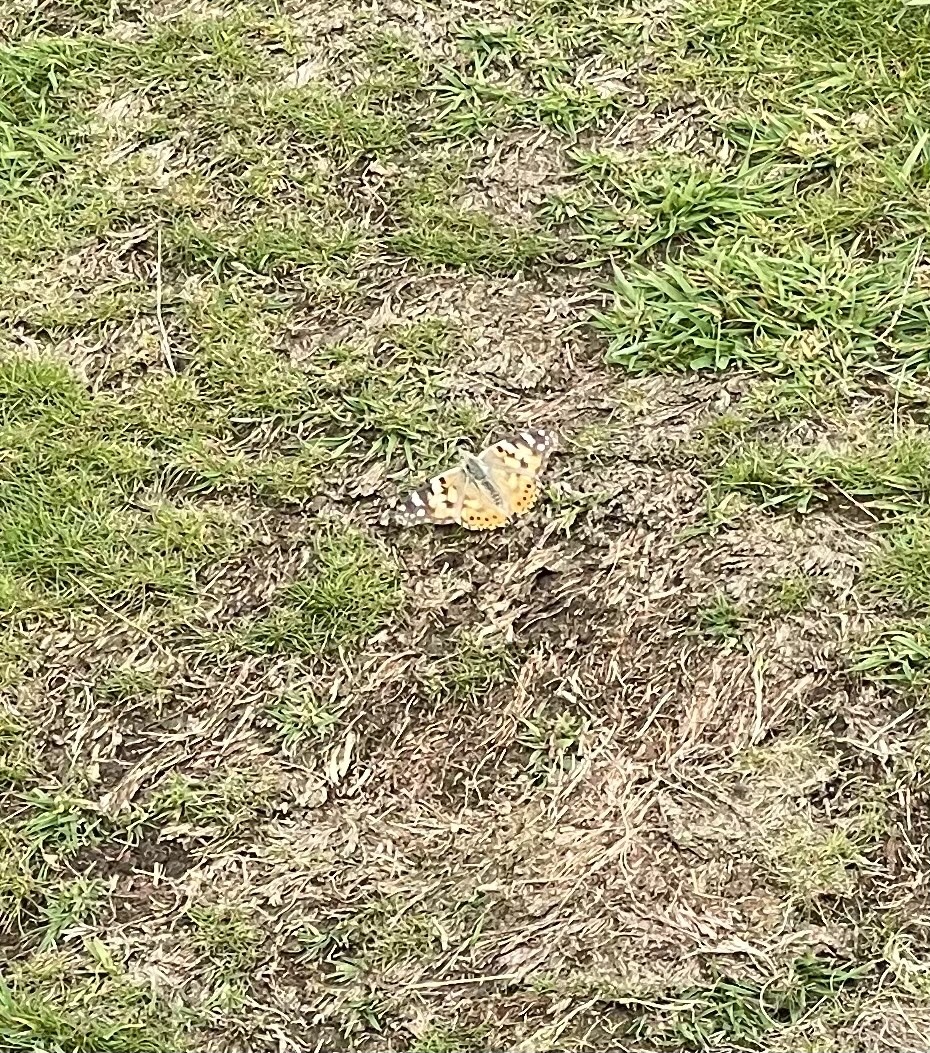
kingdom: Animalia
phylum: Arthropoda
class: Insecta
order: Lepidoptera
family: Nymphalidae
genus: Vanessa
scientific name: Vanessa cardui
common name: Painted lady
